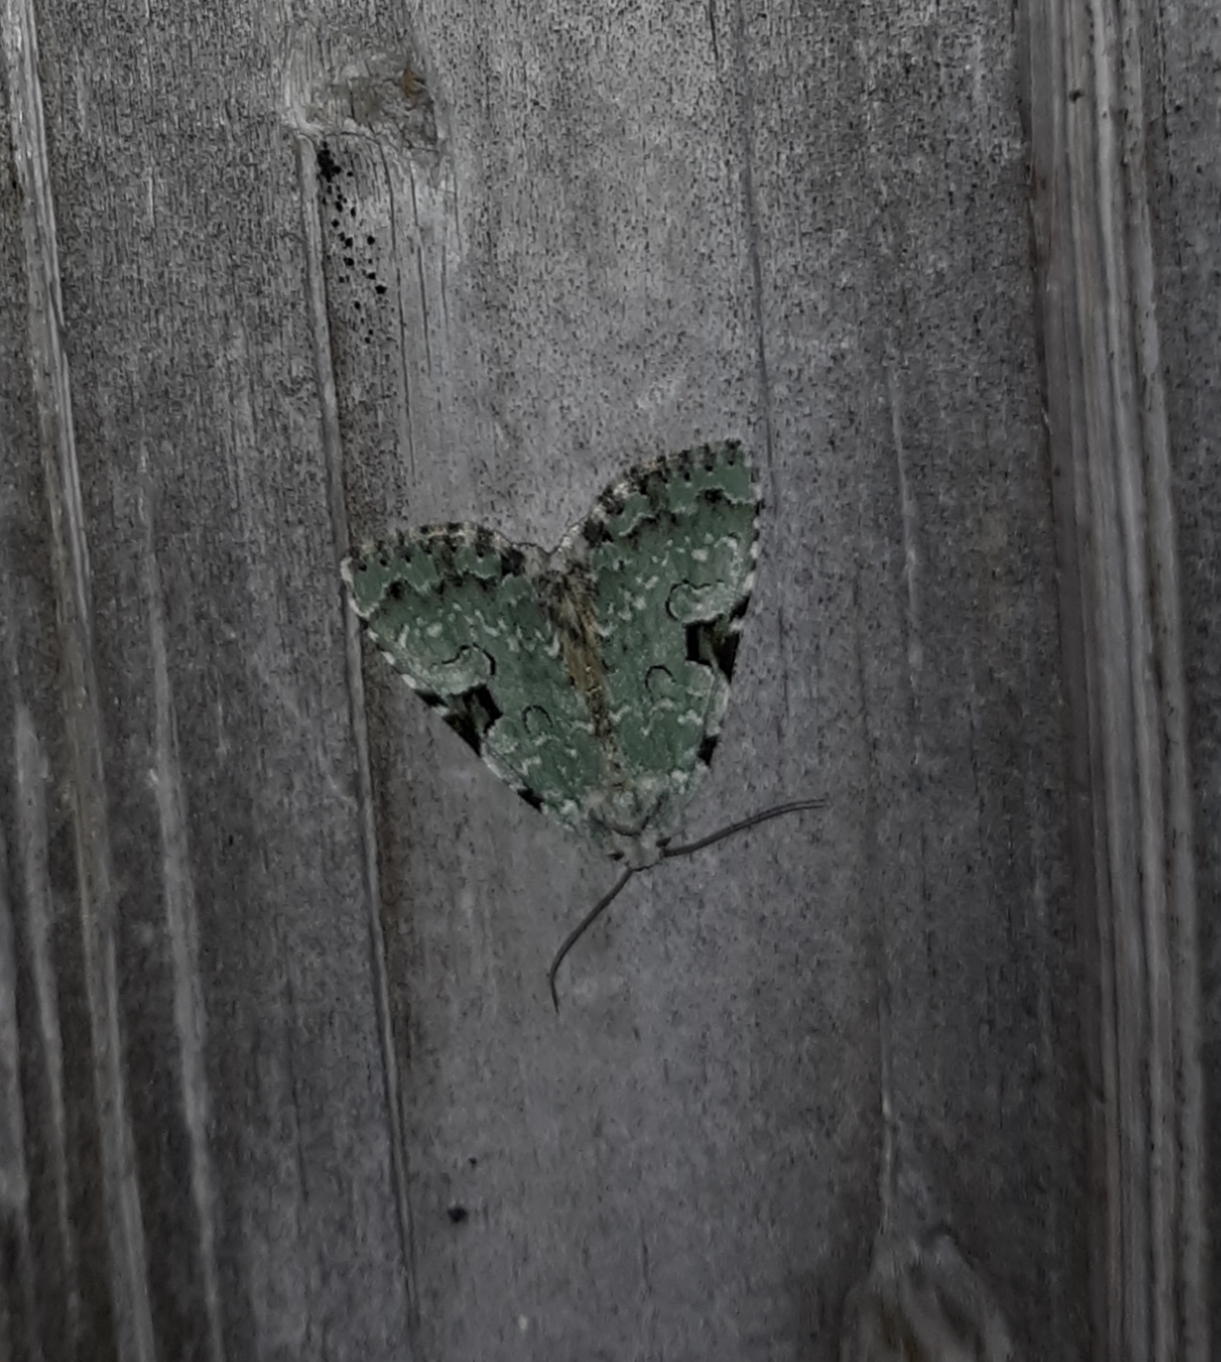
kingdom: Animalia
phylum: Arthropoda
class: Insecta
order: Lepidoptera
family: Noctuidae
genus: Leuconycta
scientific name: Leuconycta diphteroides
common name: Green leuconycta moth
